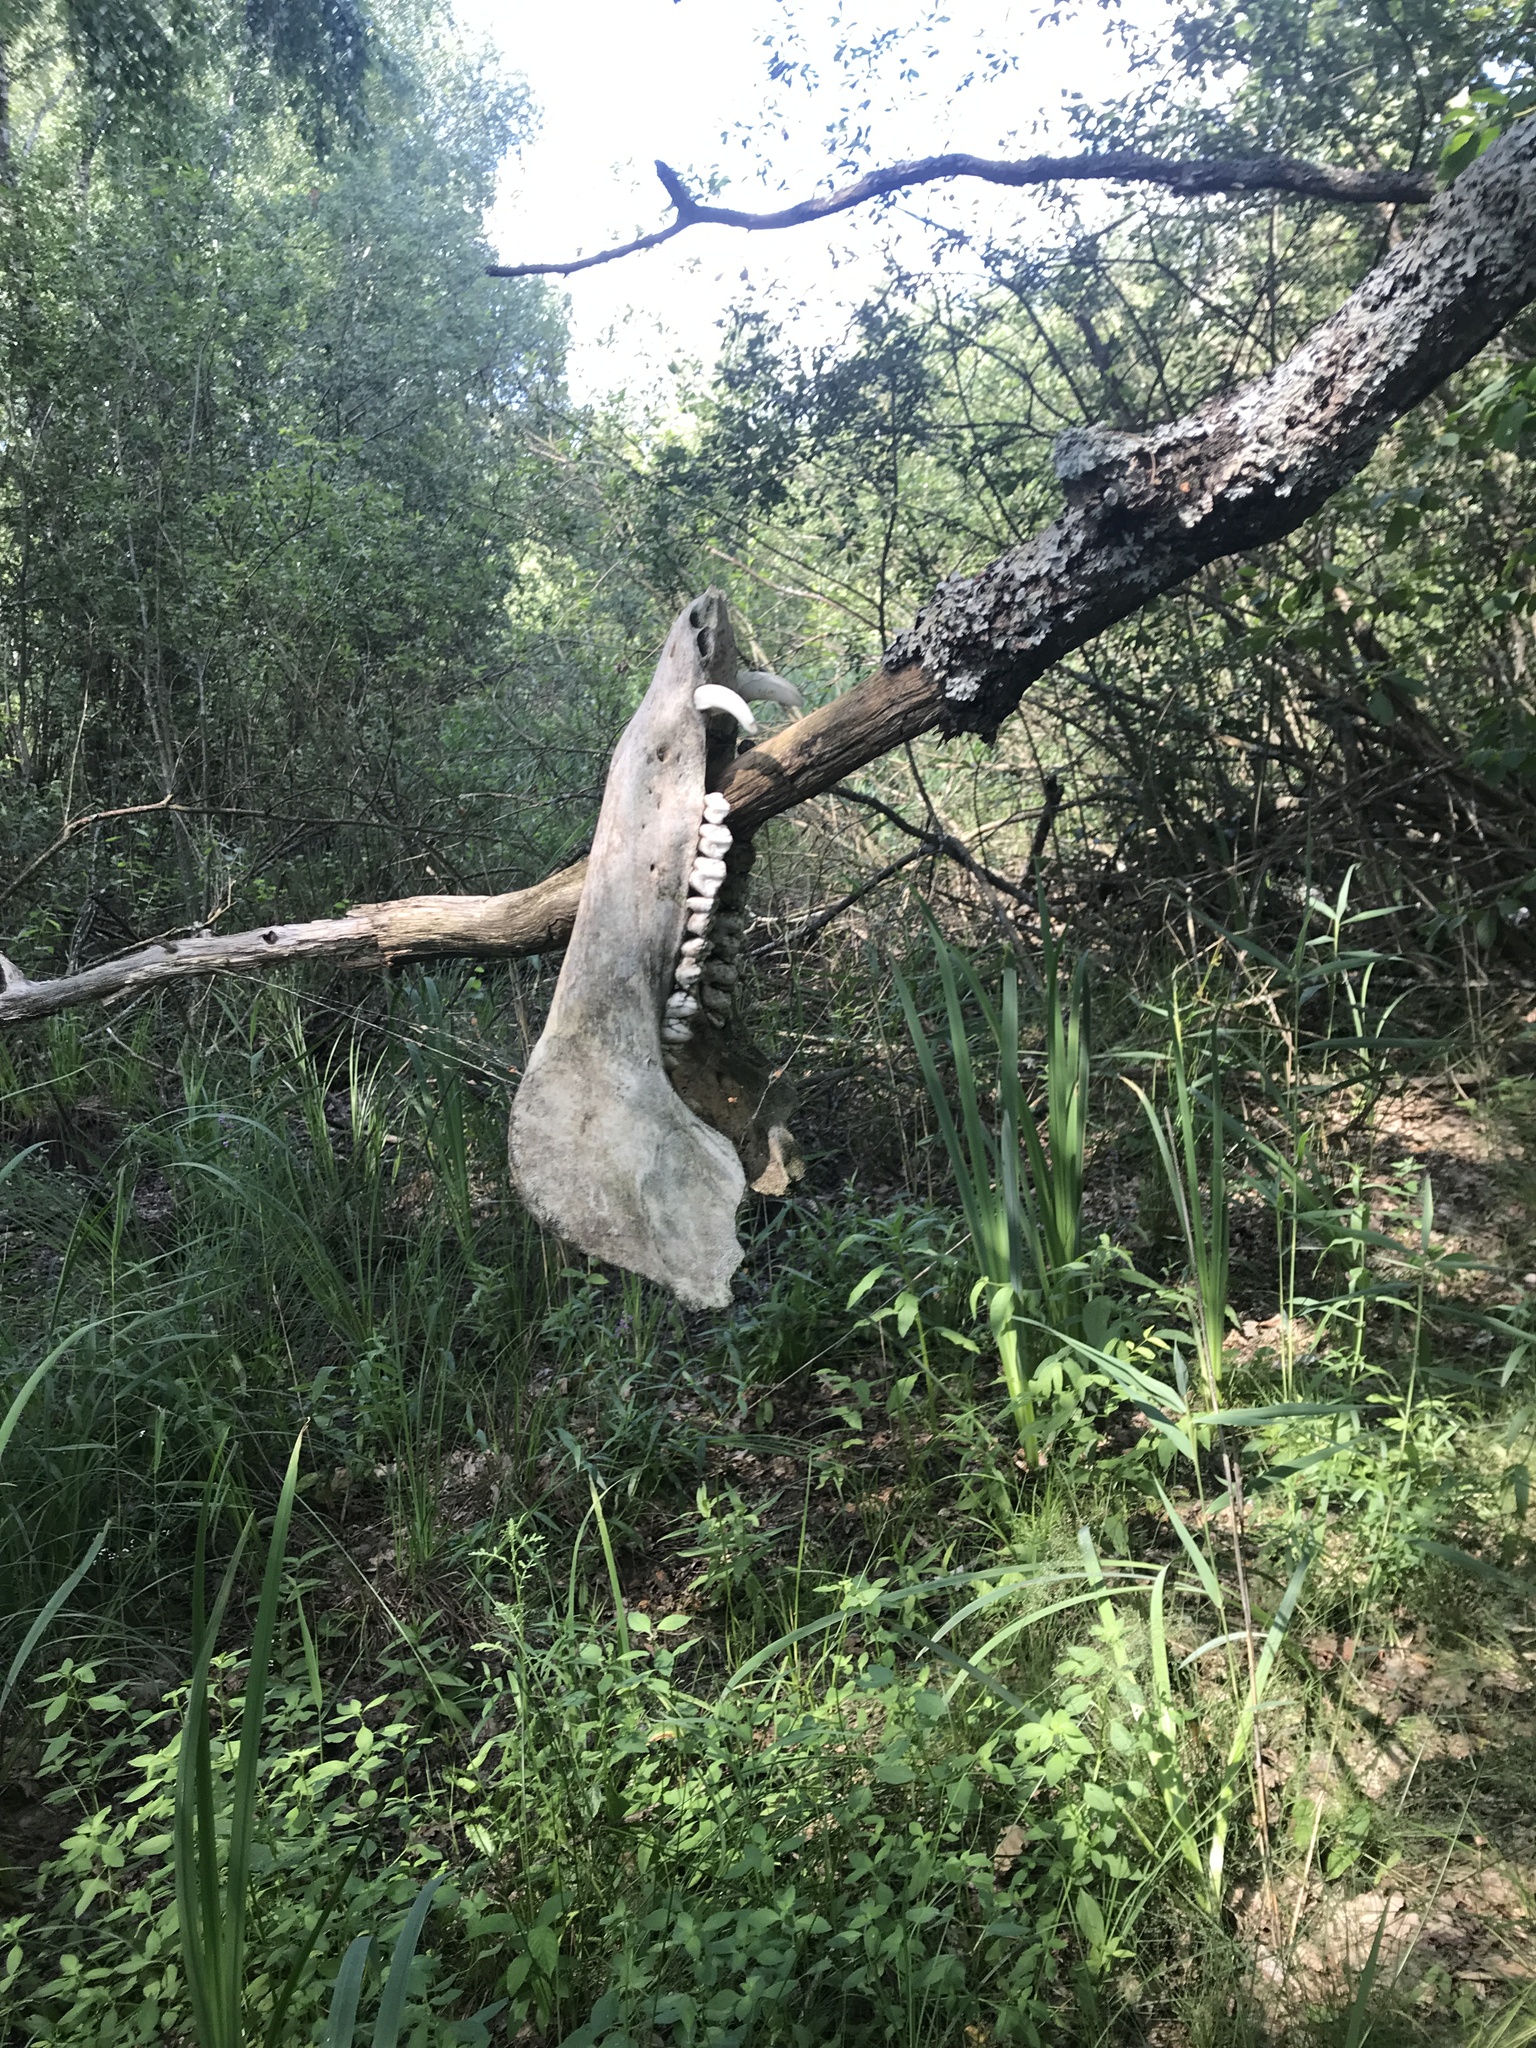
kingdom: Animalia
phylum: Chordata
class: Mammalia
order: Artiodactyla
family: Suidae
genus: Sus
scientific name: Sus scrofa
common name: Wild boar
